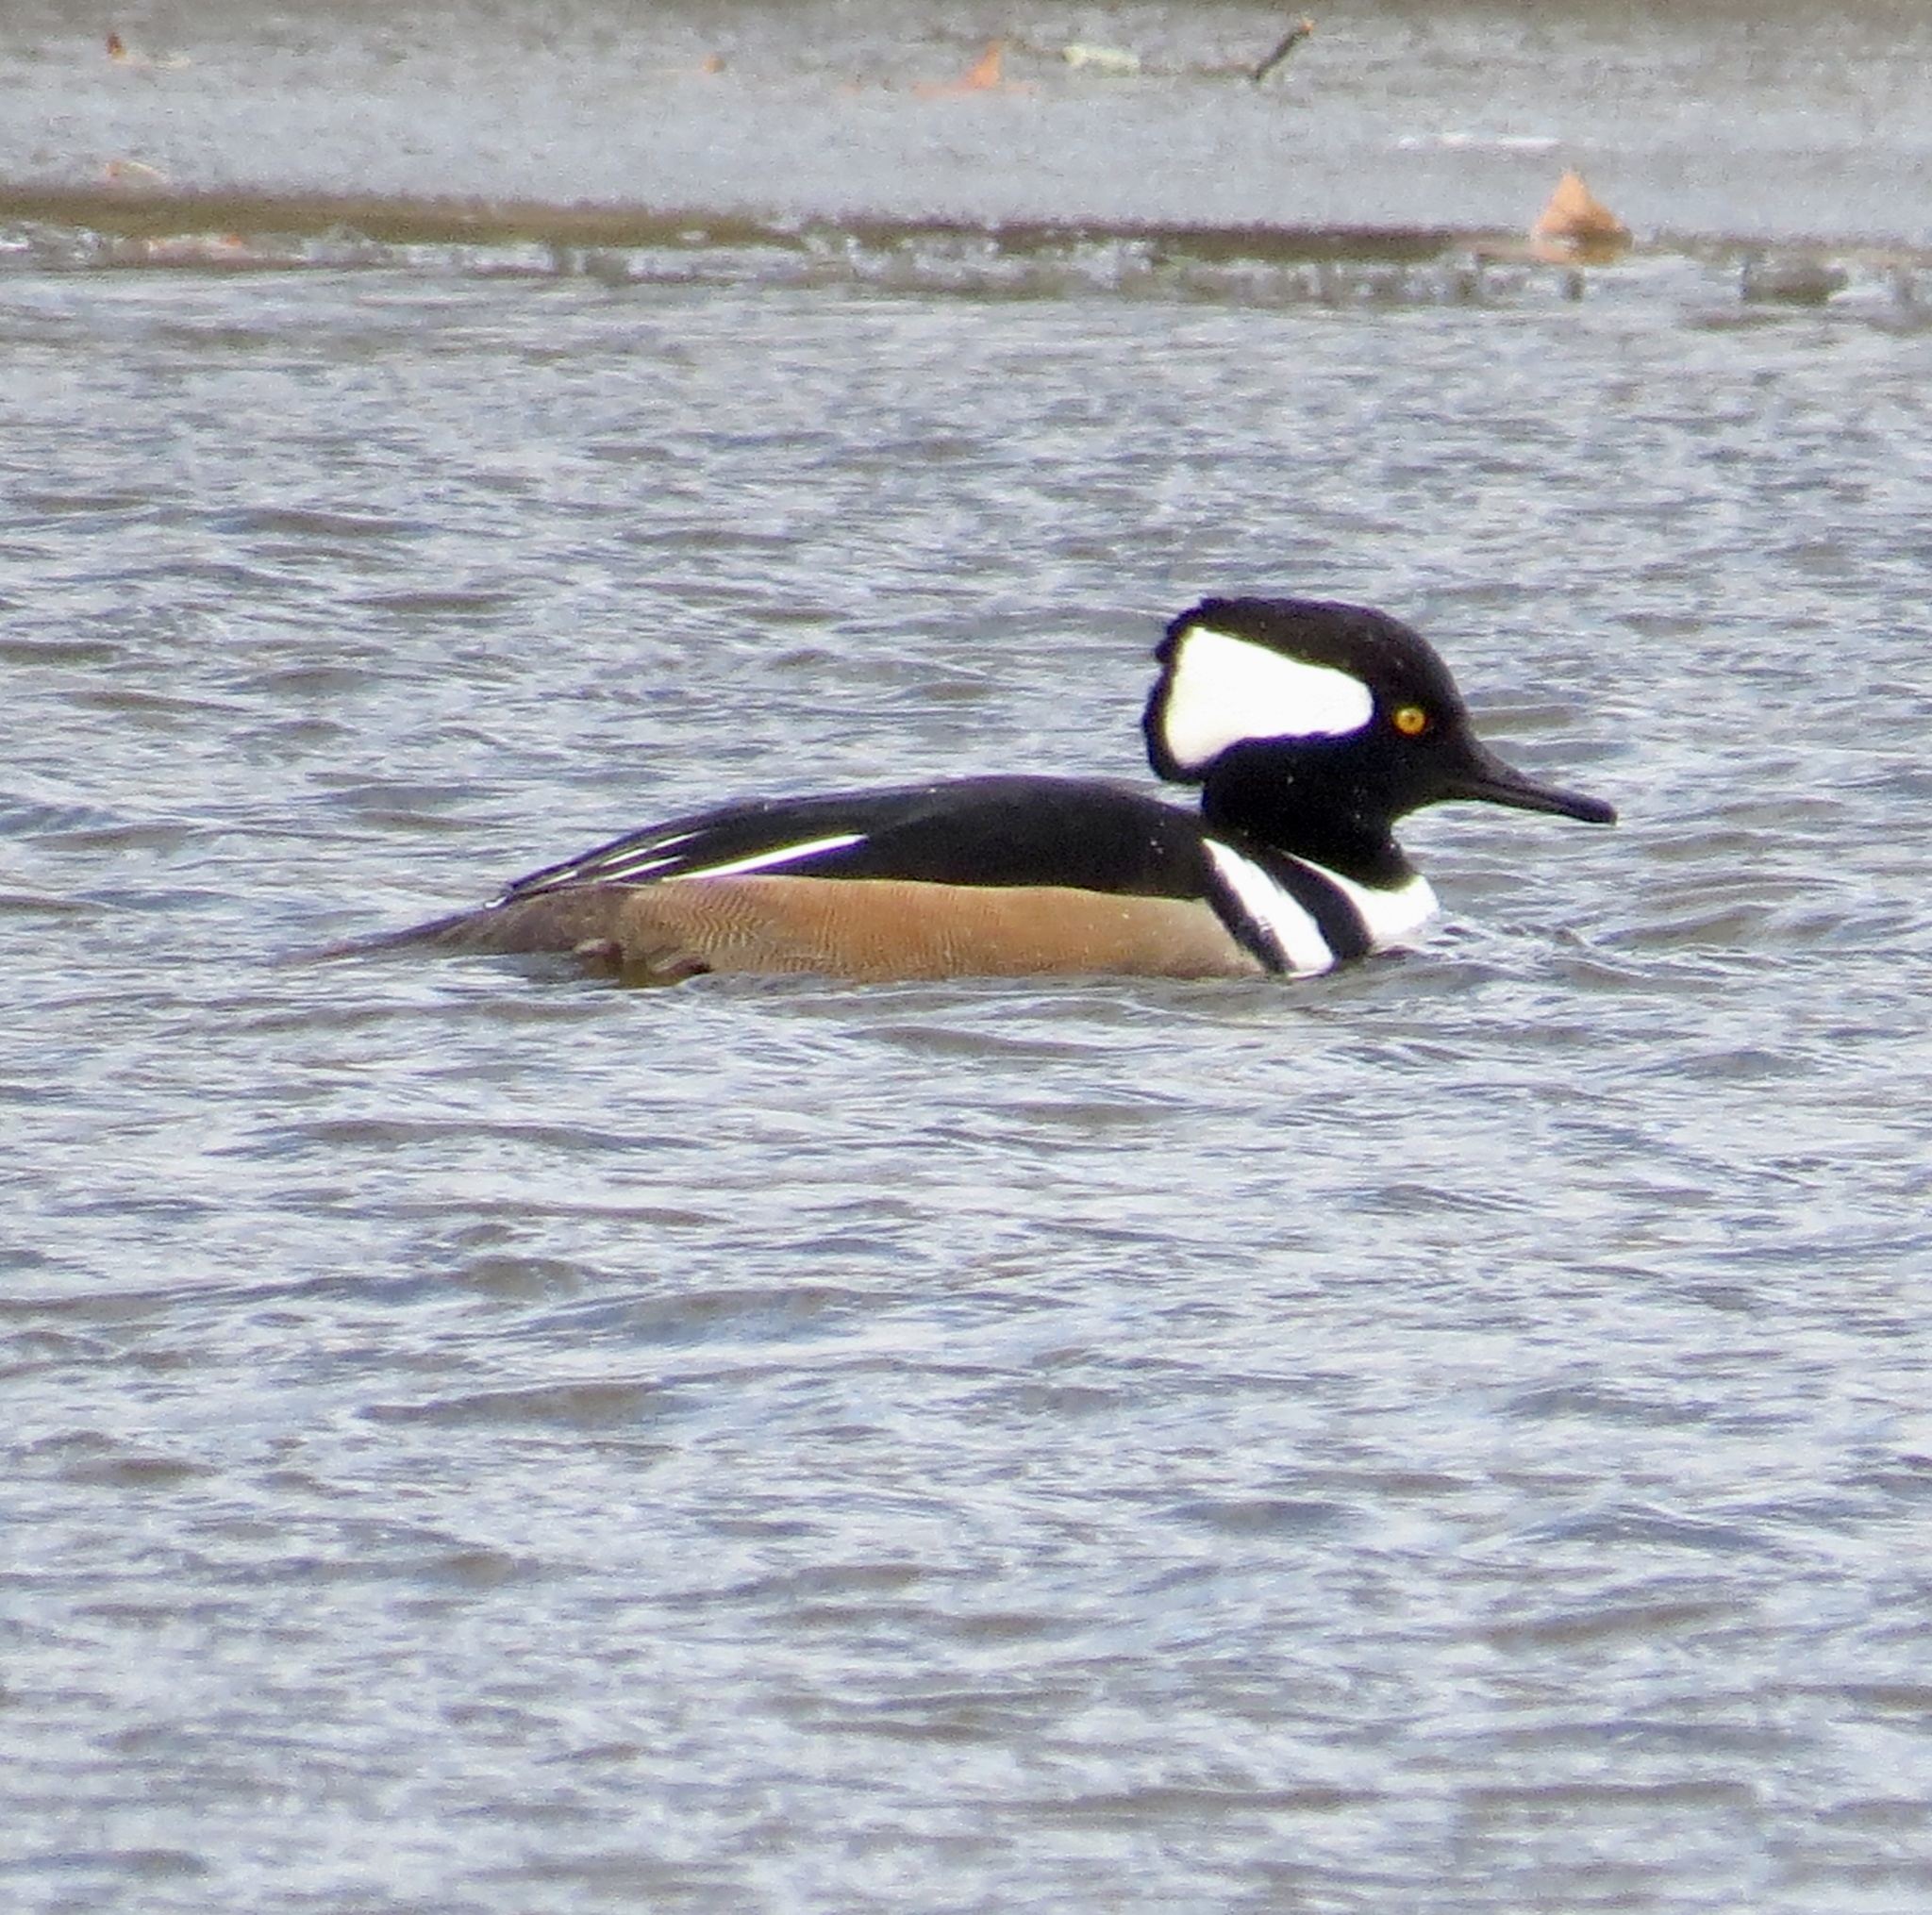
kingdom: Animalia
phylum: Chordata
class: Aves
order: Anseriformes
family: Anatidae
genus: Lophodytes
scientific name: Lophodytes cucullatus
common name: Hooded merganser
